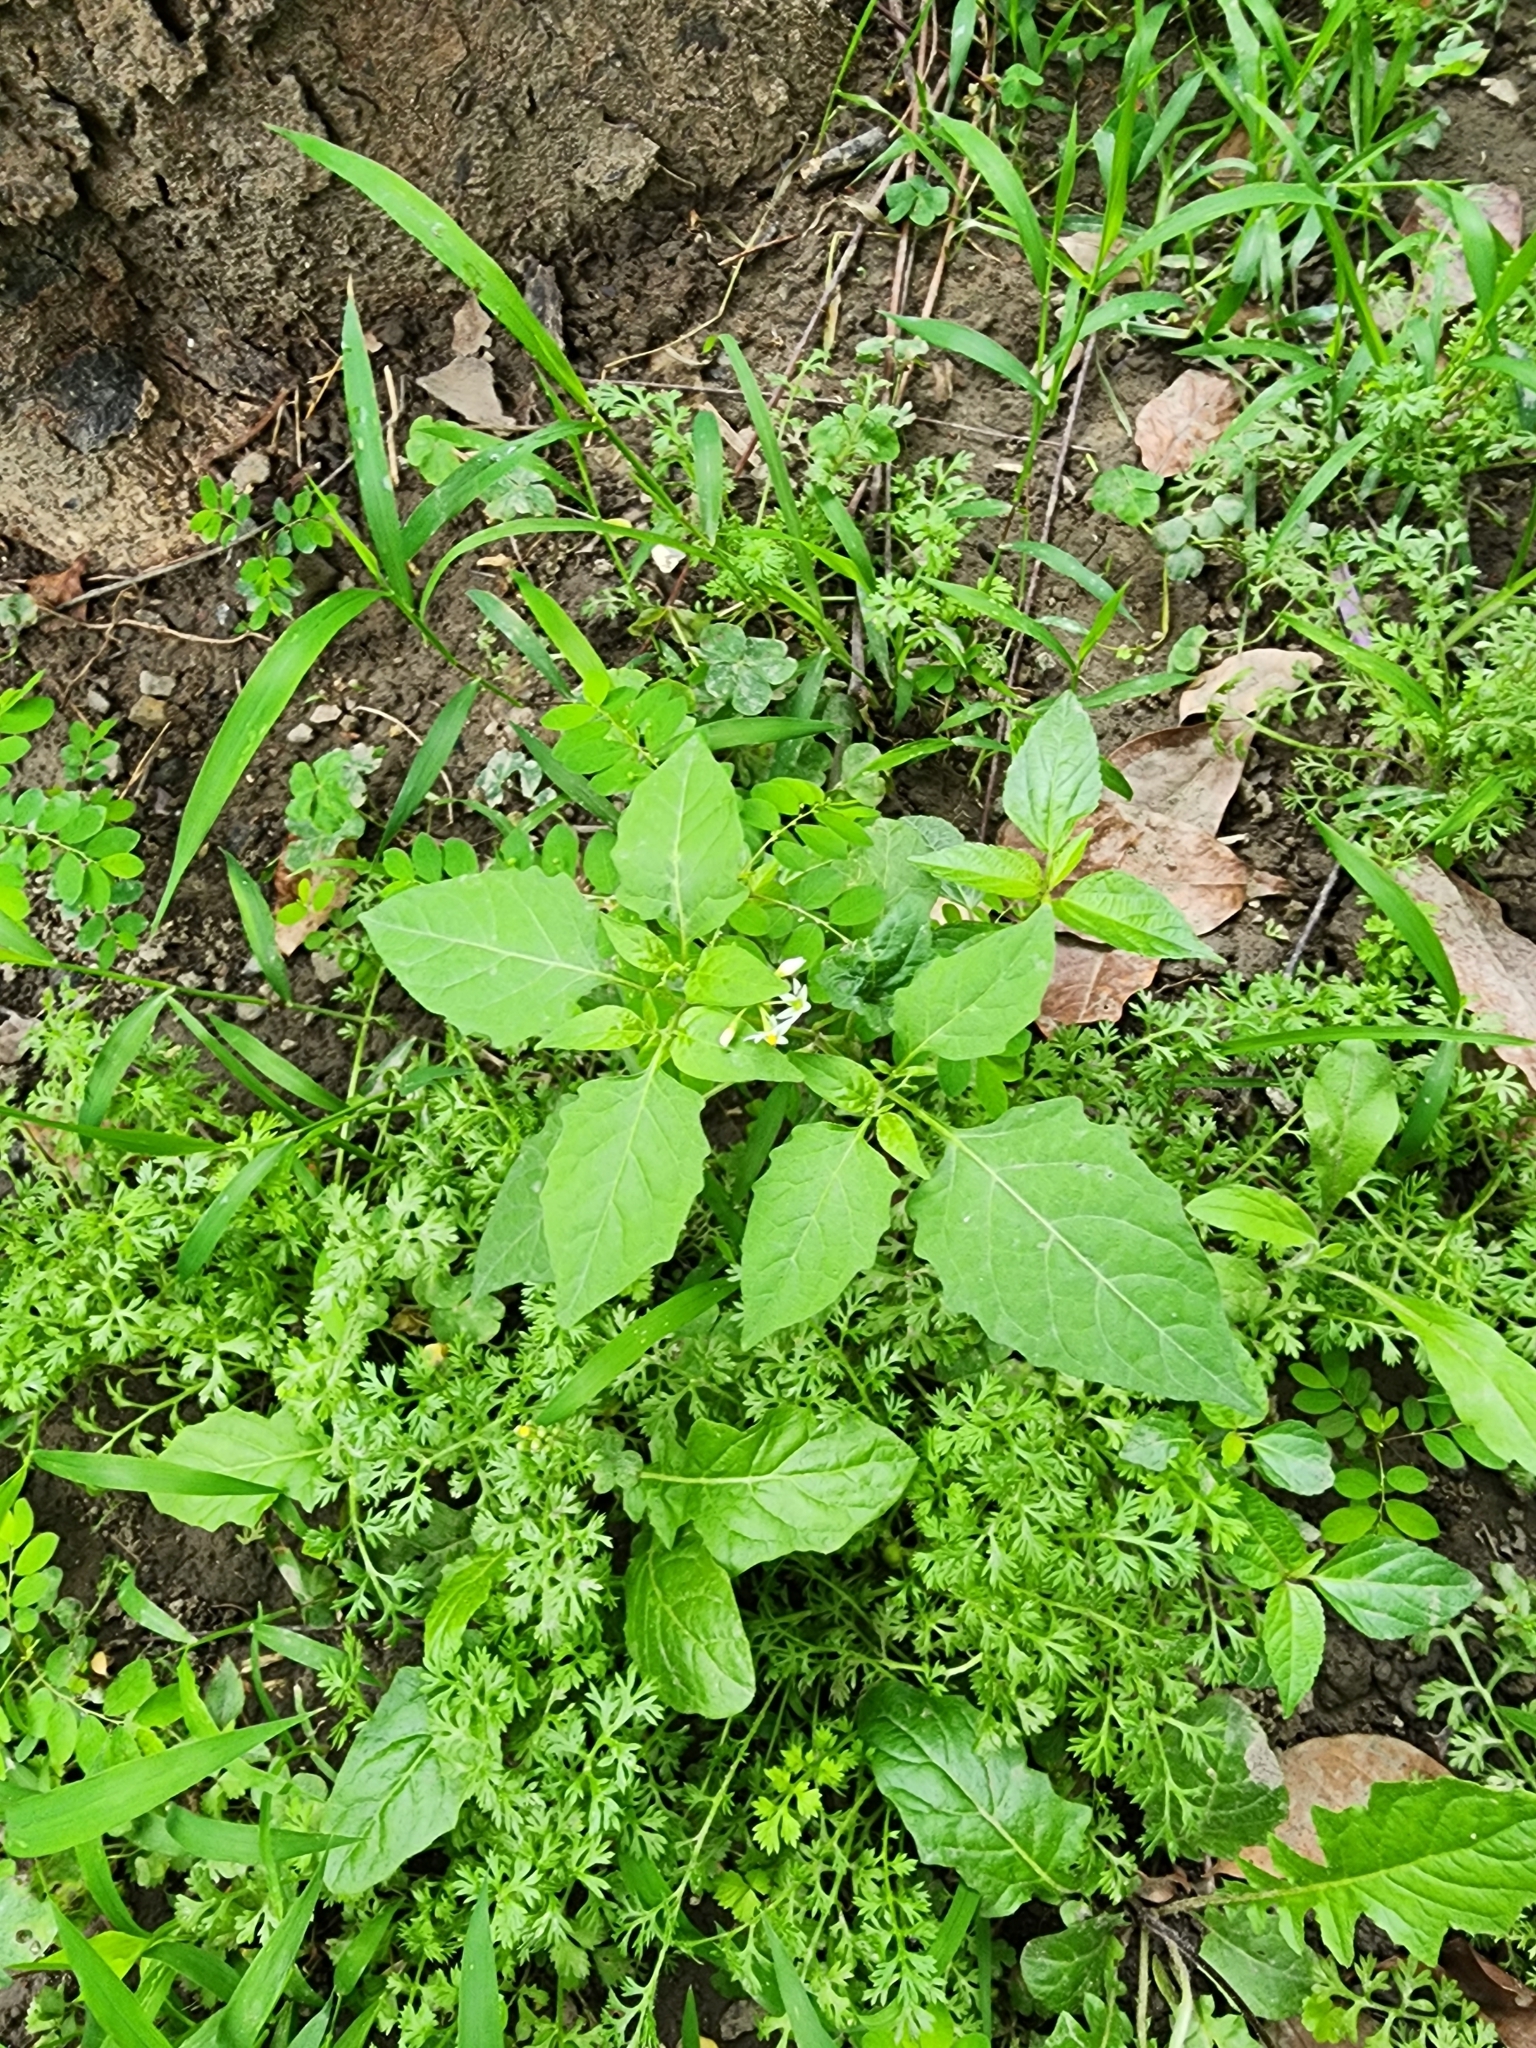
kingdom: Plantae
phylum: Tracheophyta
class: Magnoliopsida
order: Solanales
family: Solanaceae
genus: Solanum
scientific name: Solanum
